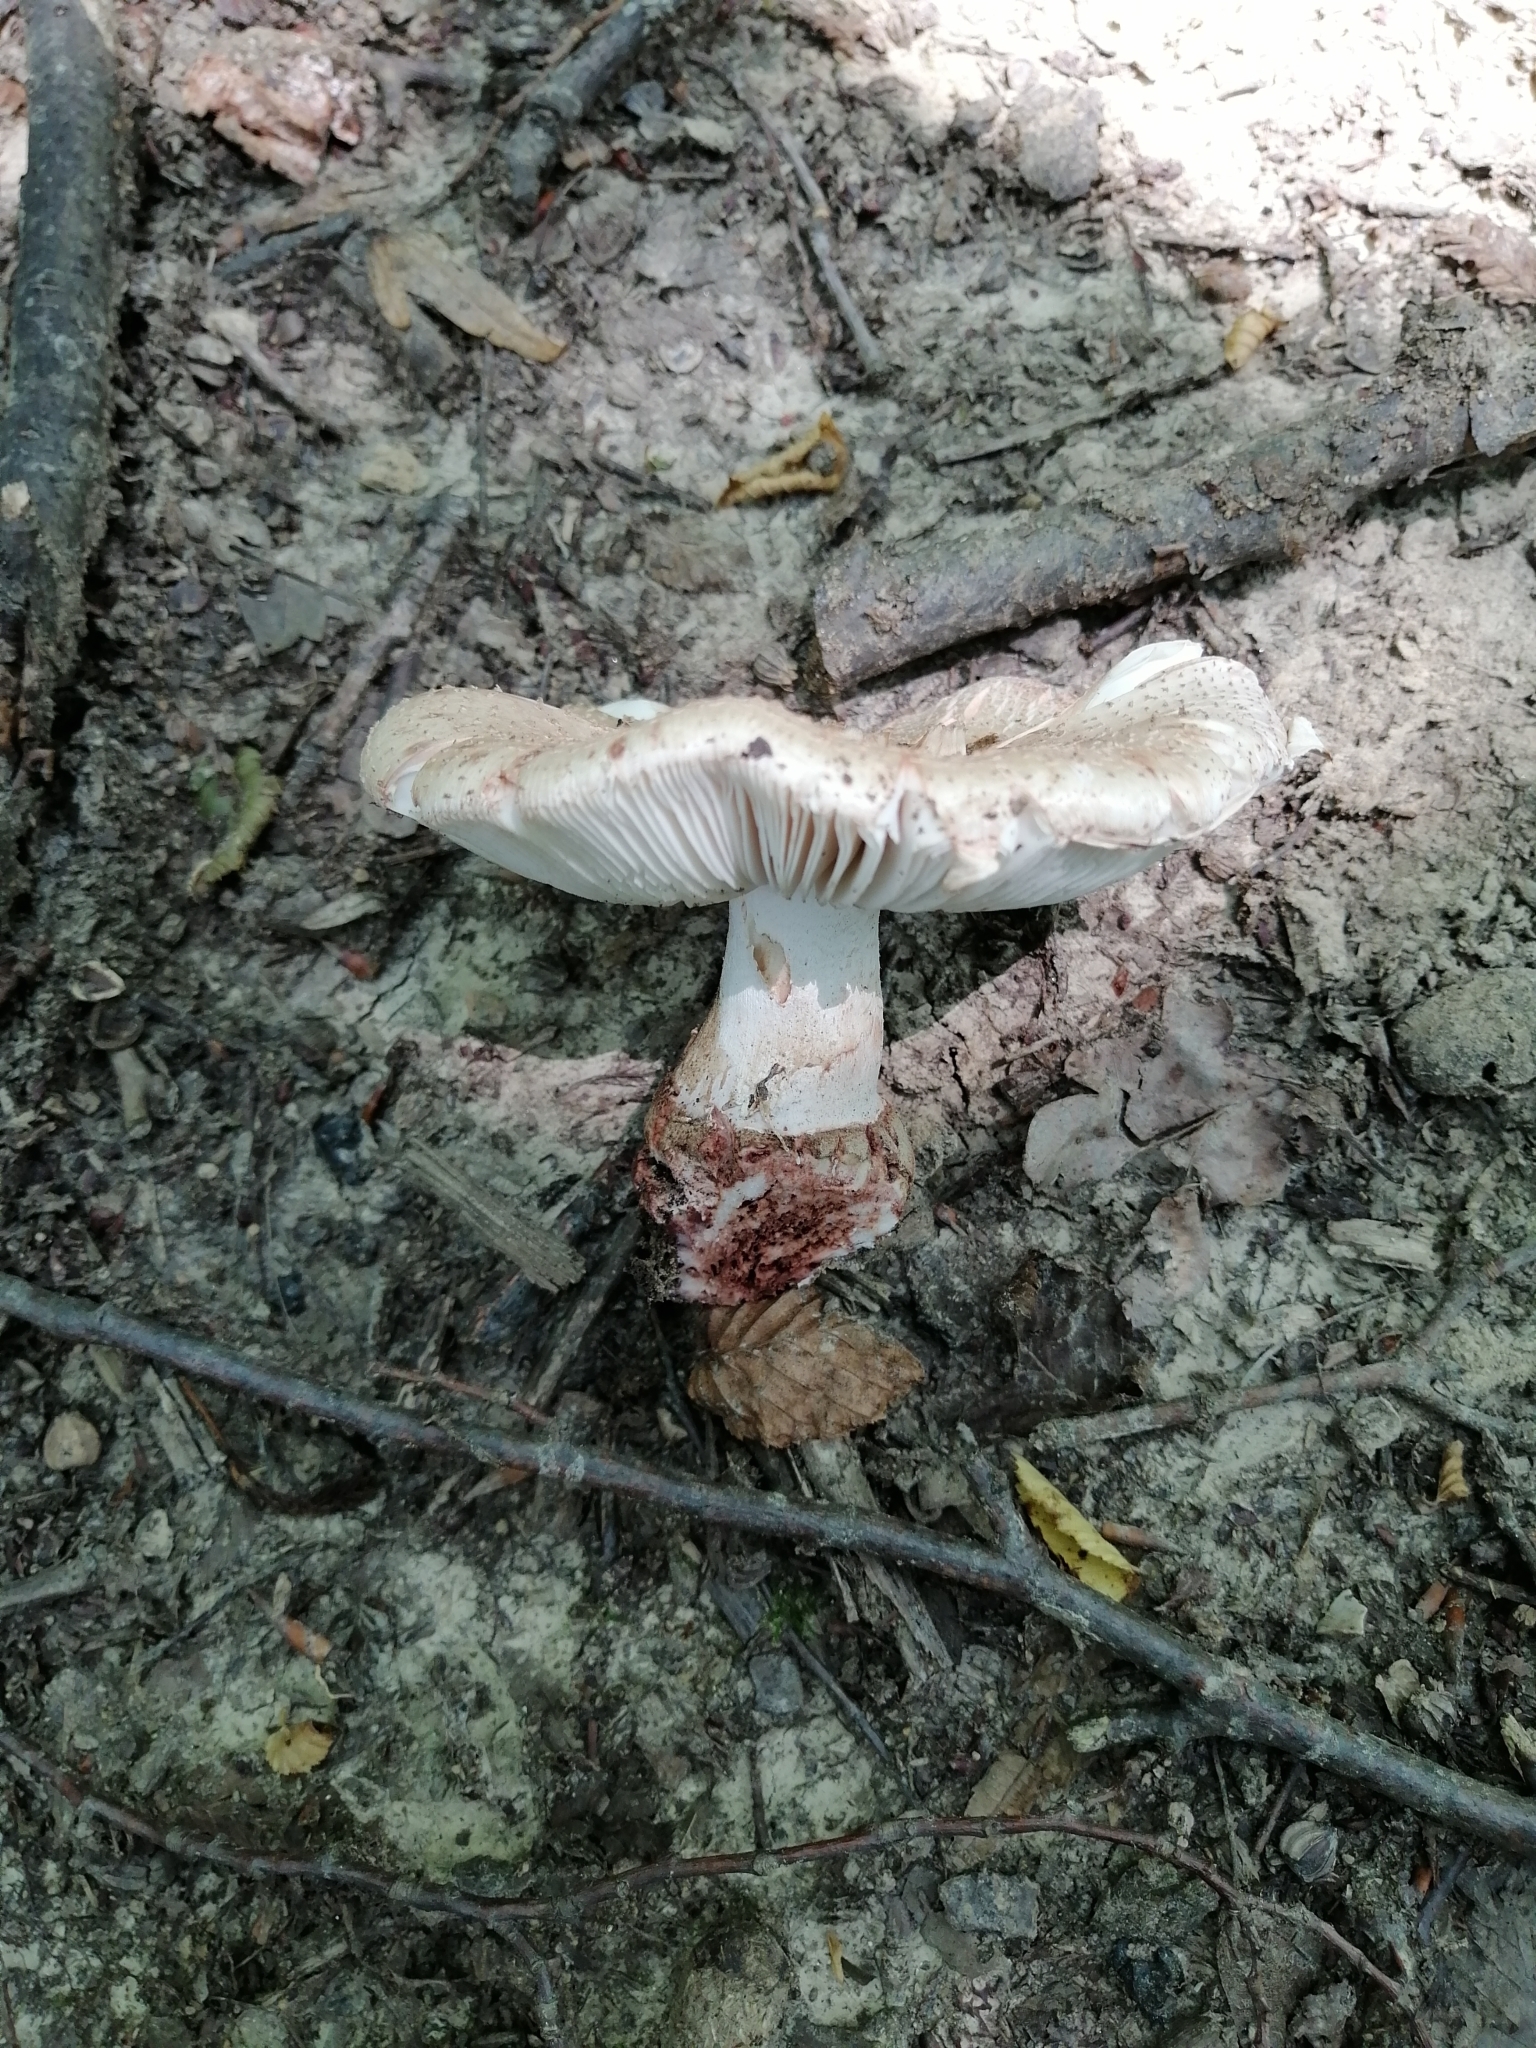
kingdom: Fungi
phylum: Basidiomycota
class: Agaricomycetes
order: Agaricales
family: Amanitaceae
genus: Amanita
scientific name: Amanita rubescens
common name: Blusher
